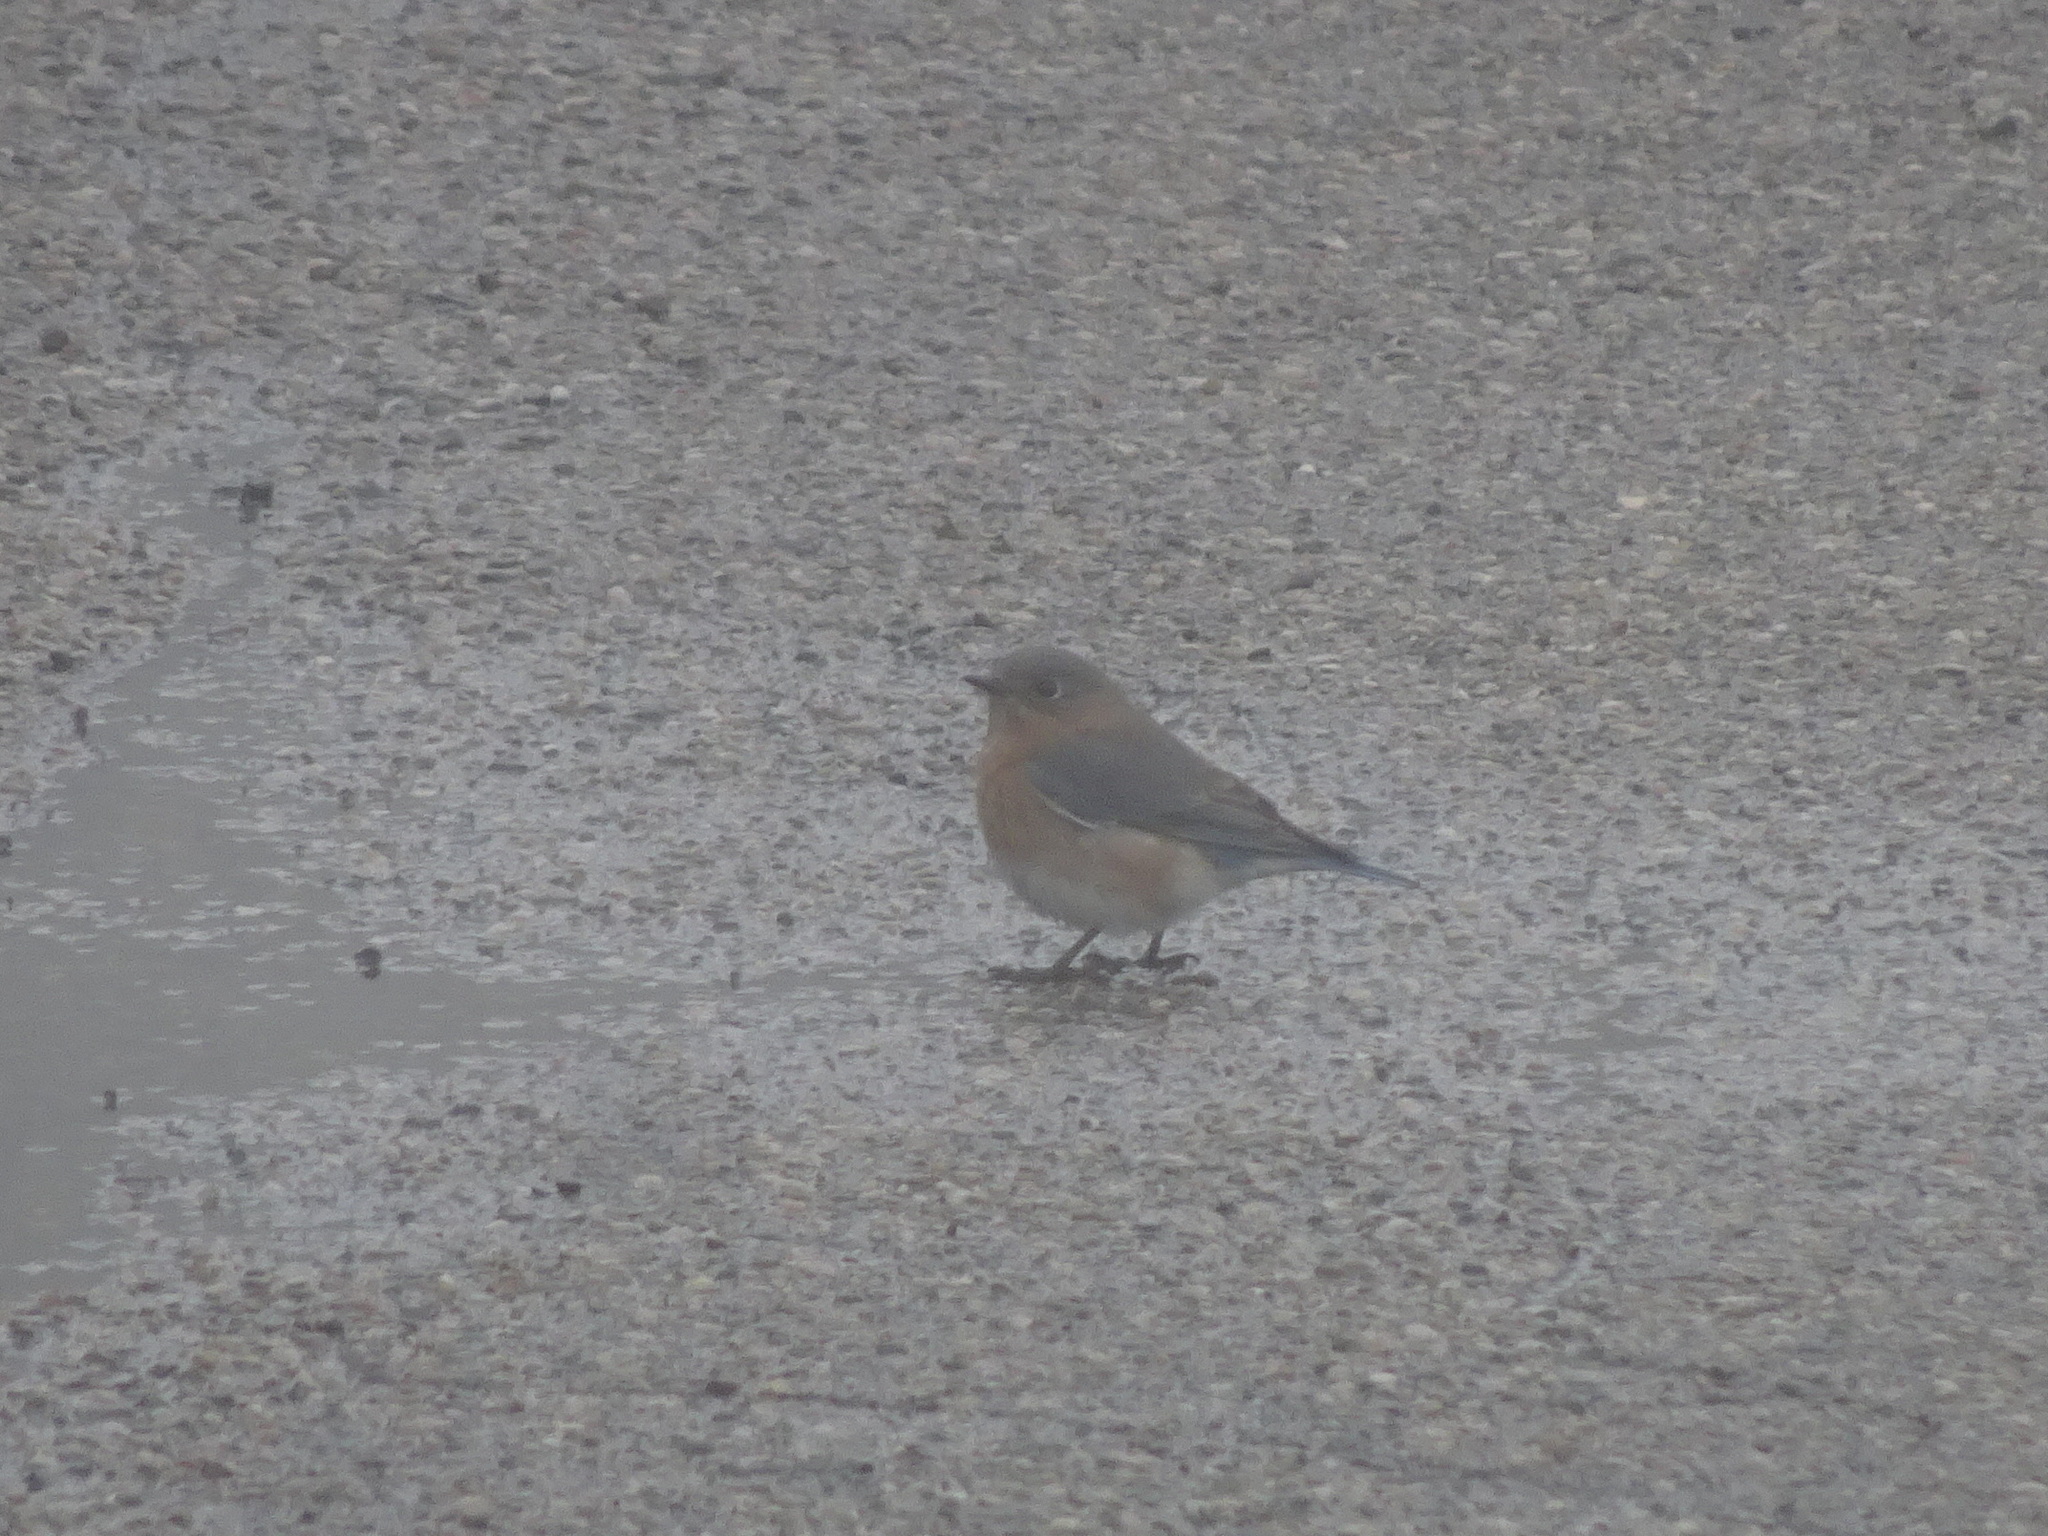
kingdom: Animalia
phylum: Chordata
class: Aves
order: Passeriformes
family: Turdidae
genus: Sialia
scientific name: Sialia sialis
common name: Eastern bluebird
